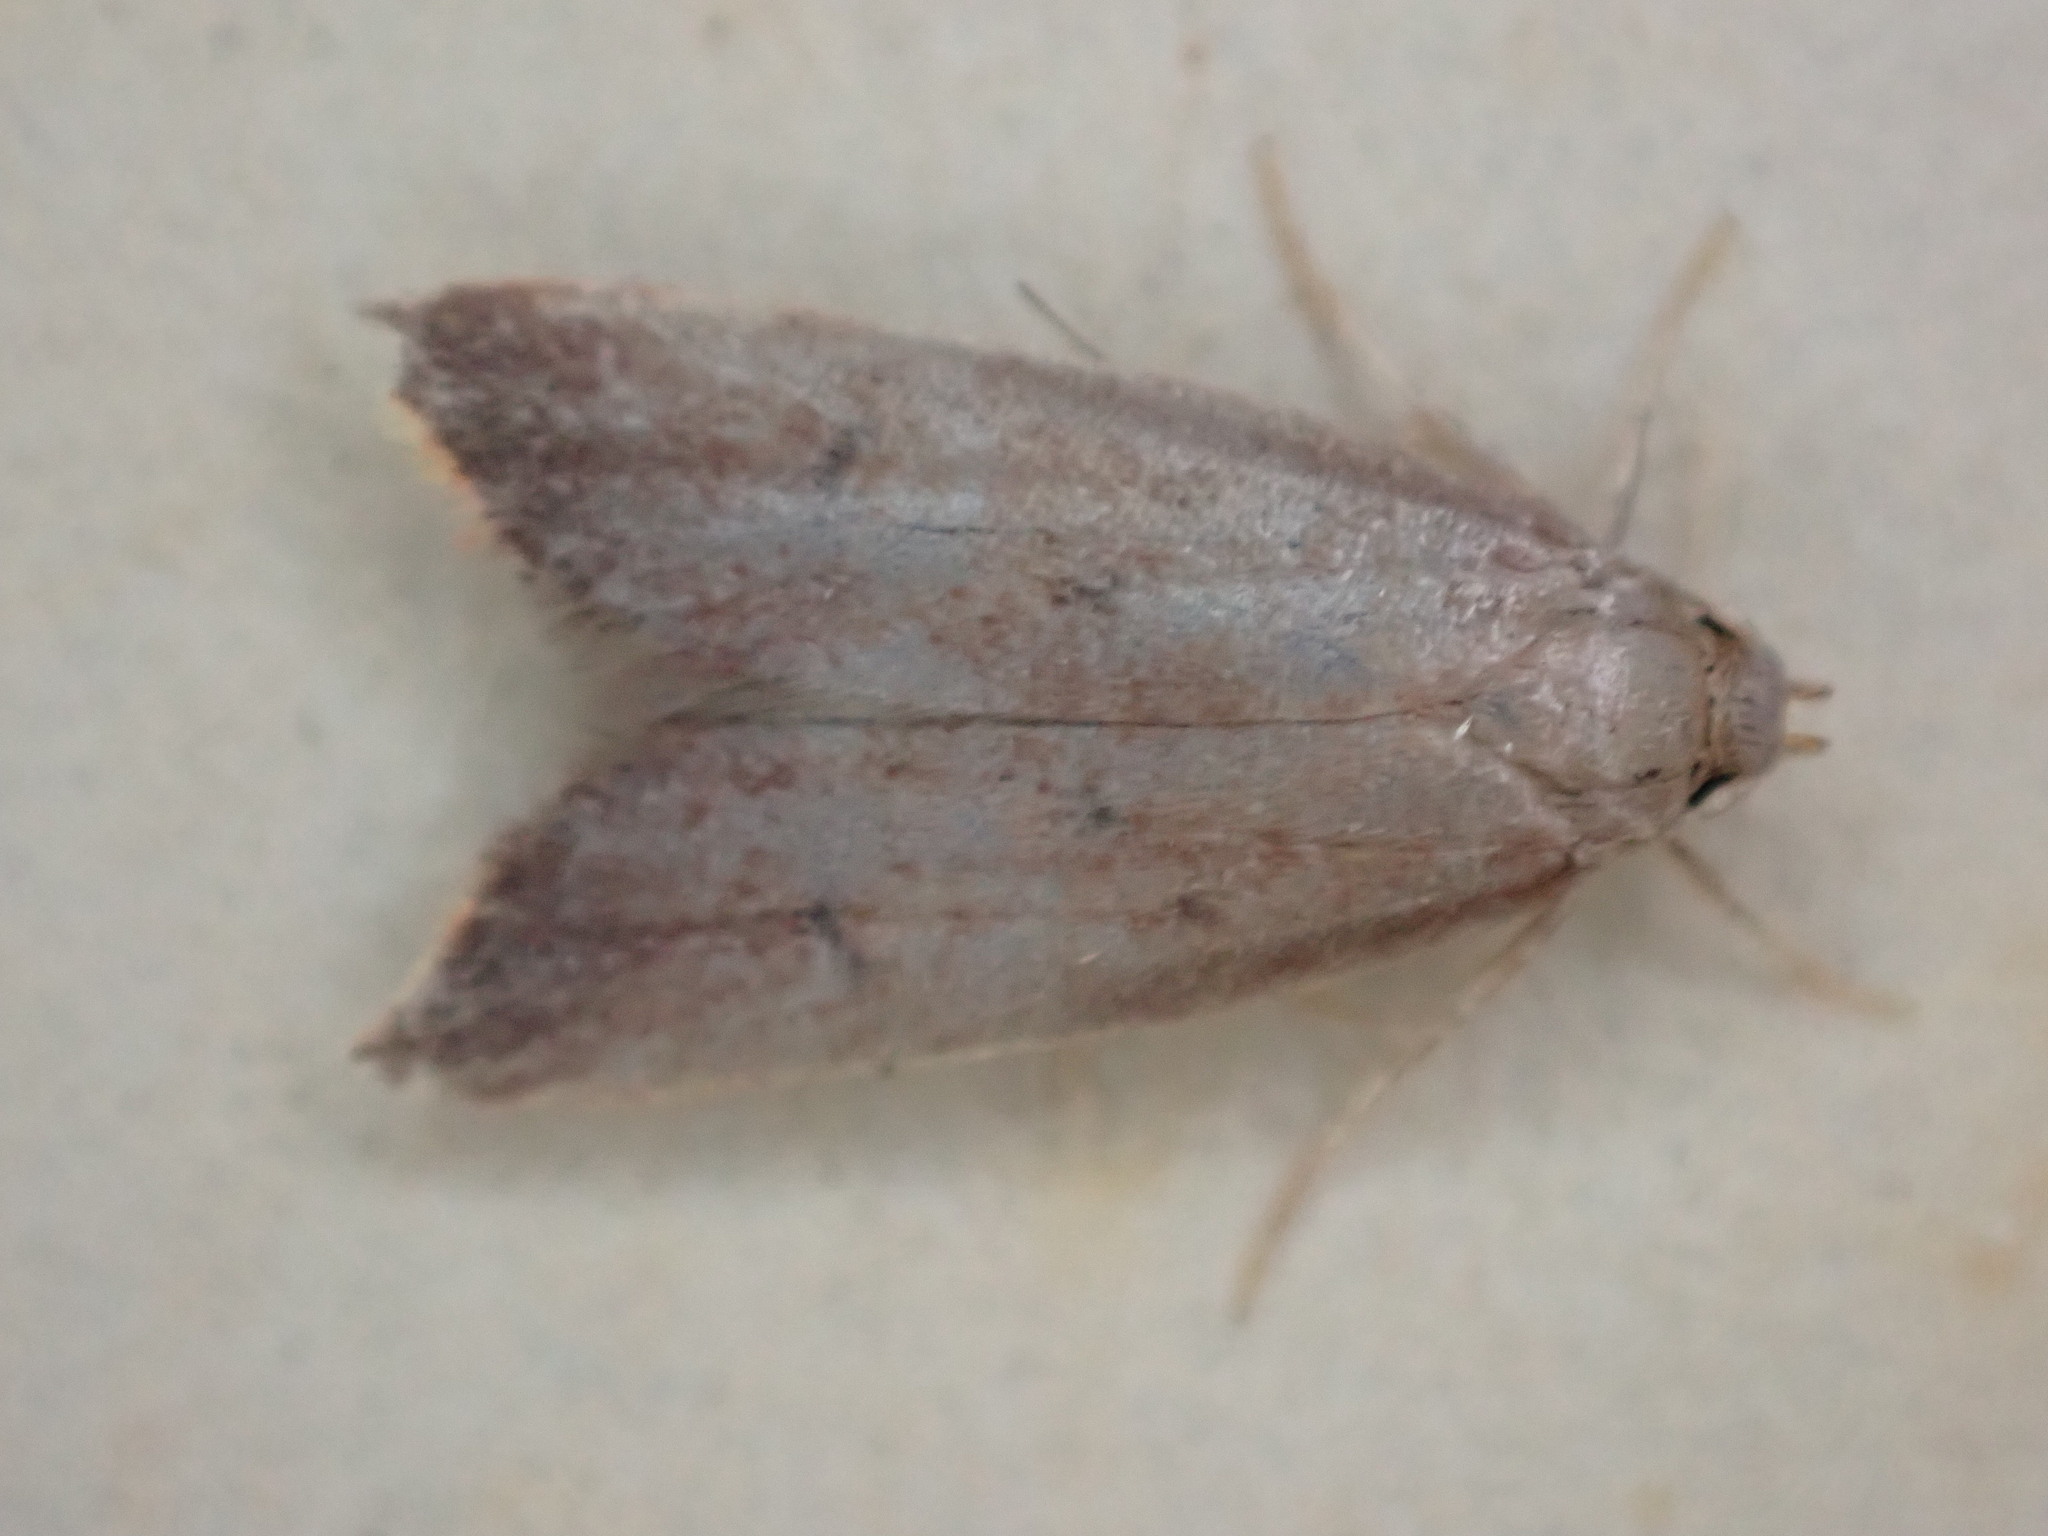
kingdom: Animalia
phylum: Arthropoda
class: Insecta
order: Lepidoptera
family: Oecophoridae
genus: Tachystola
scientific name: Tachystola acroxantha
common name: Ruddy streak
